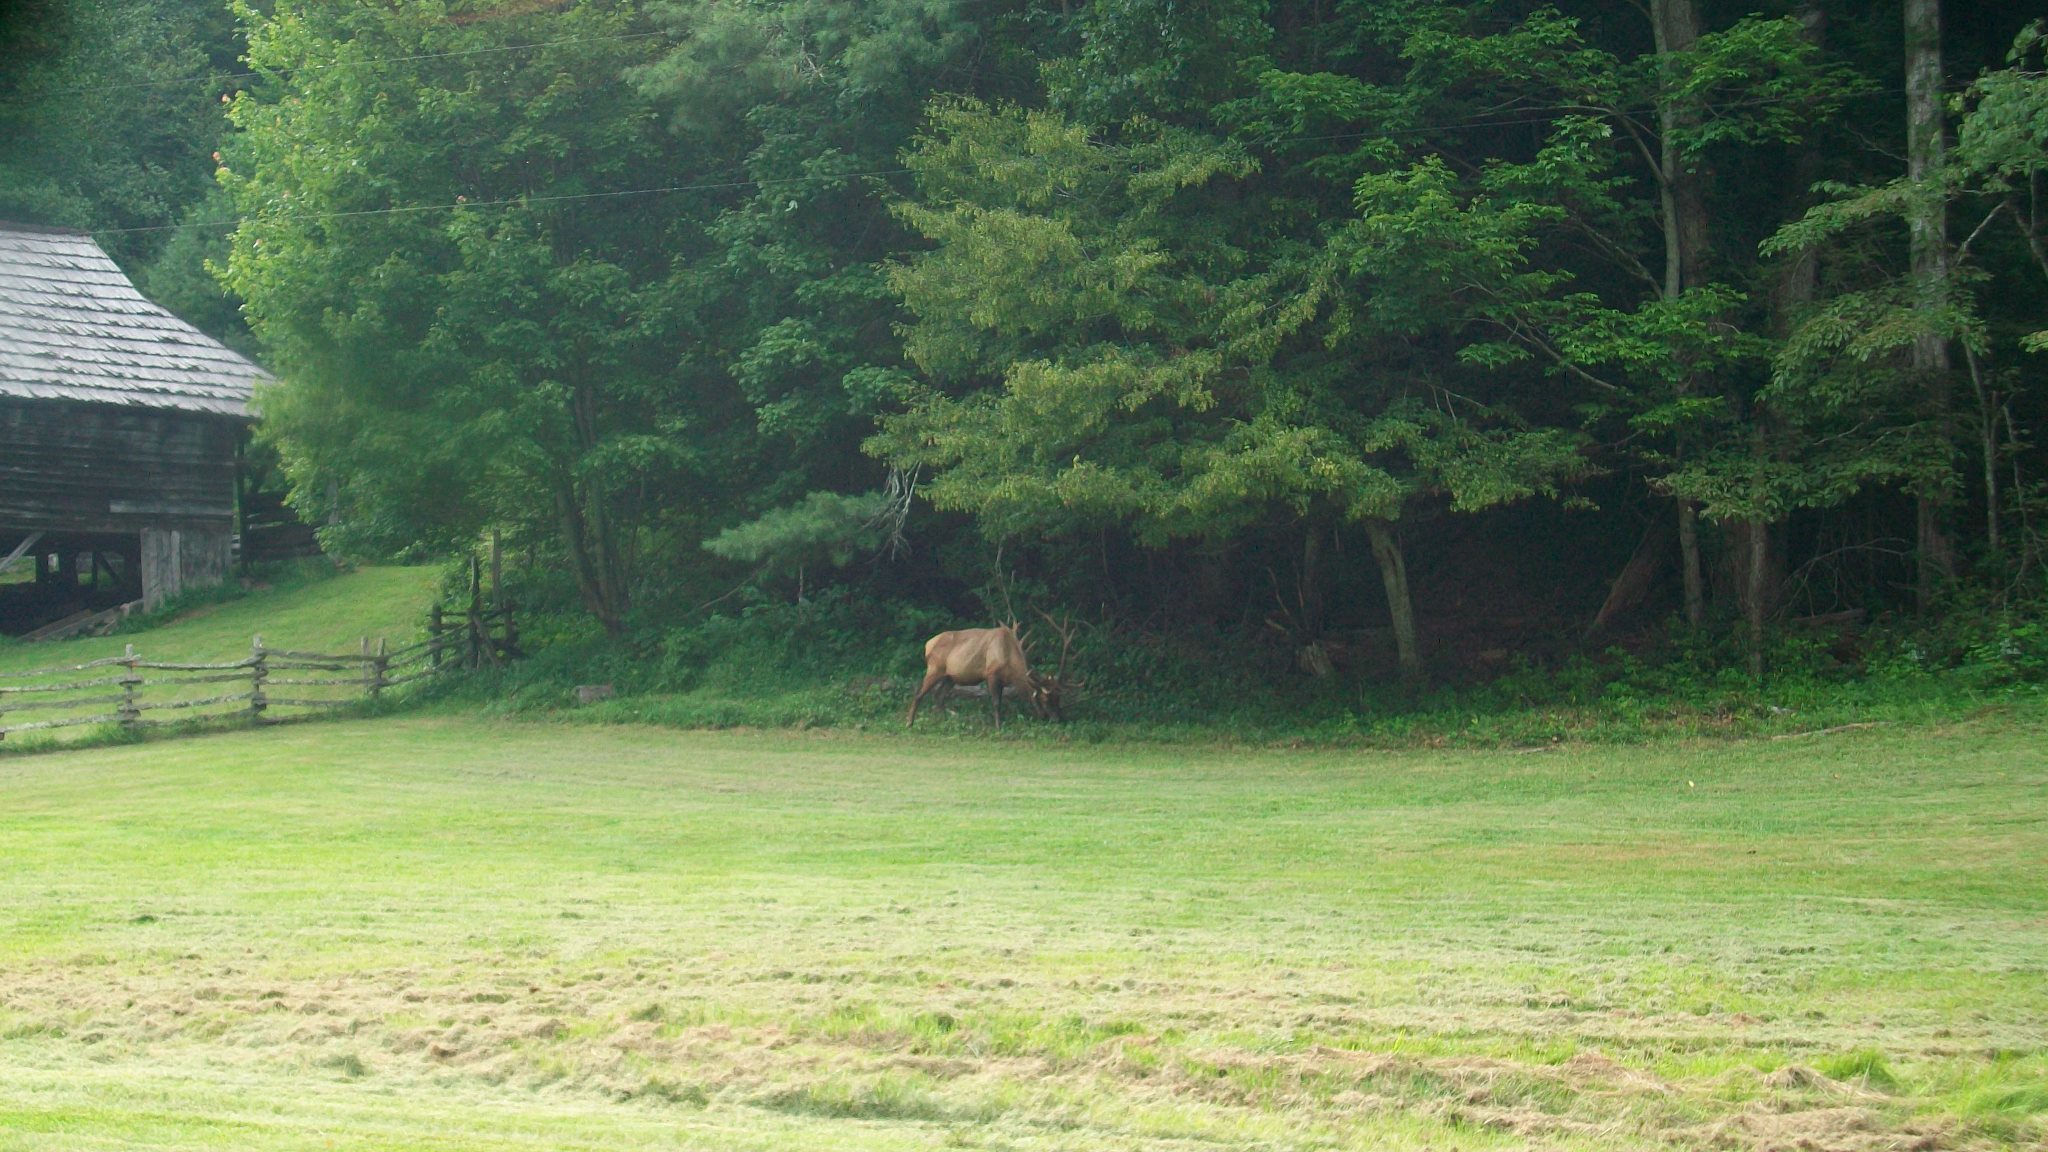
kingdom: Animalia
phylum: Chordata
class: Mammalia
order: Artiodactyla
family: Cervidae
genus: Cervus
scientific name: Cervus elaphus
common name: Red deer
